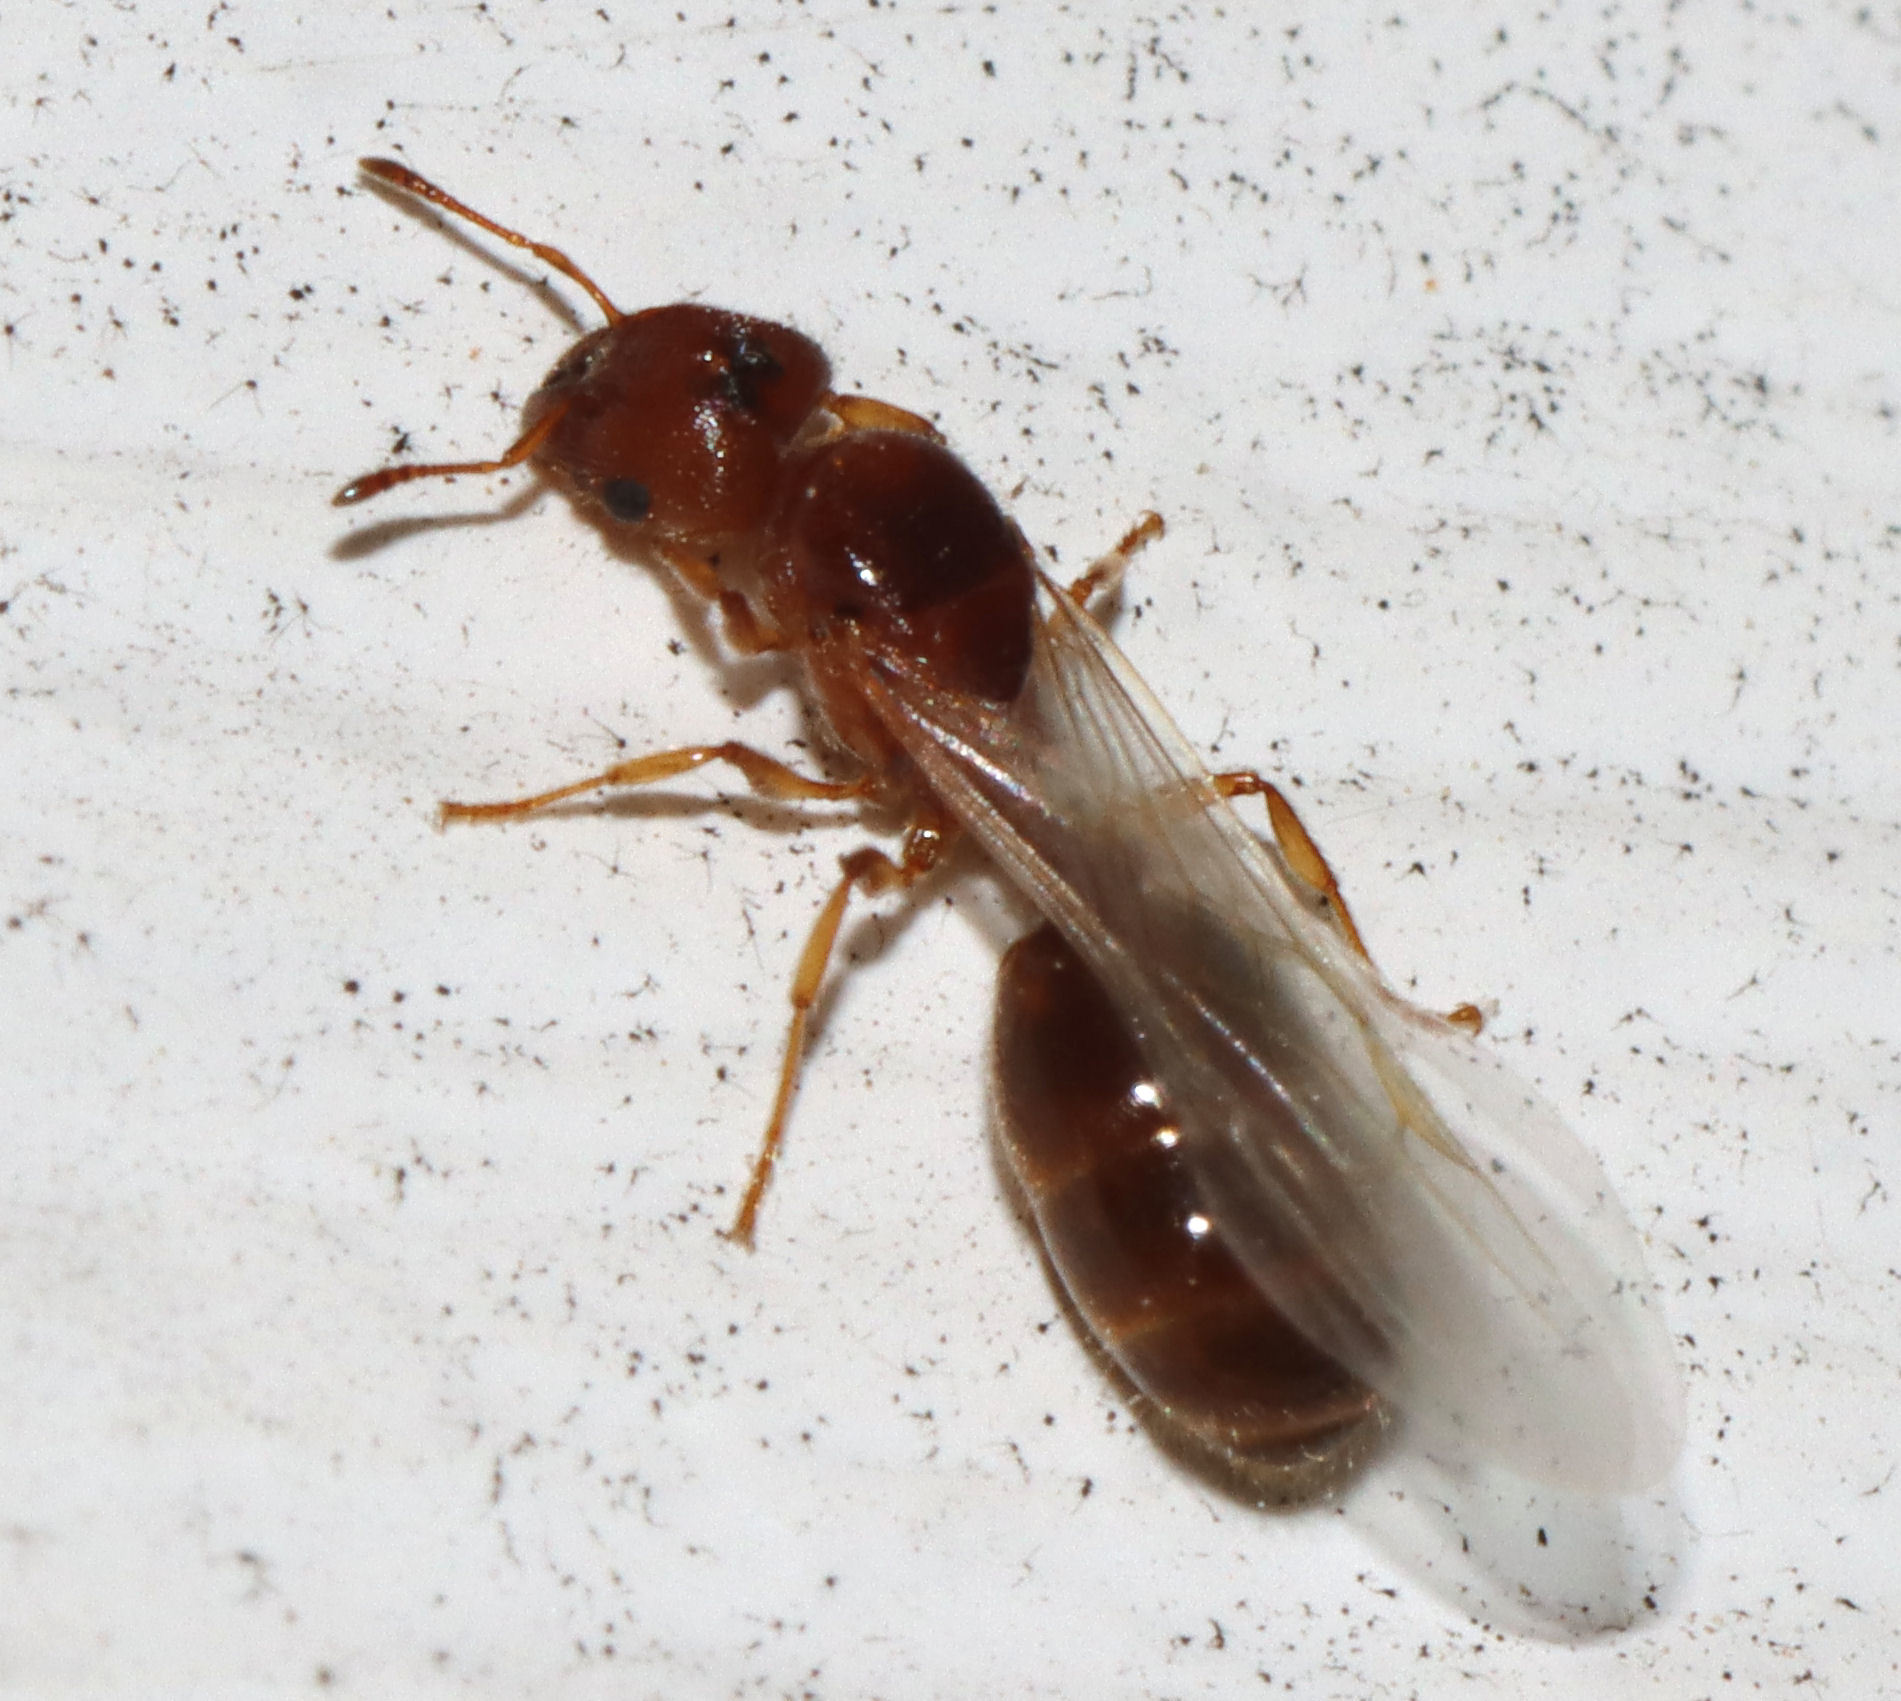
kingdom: Animalia
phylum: Arthropoda
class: Insecta
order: Hymenoptera
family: Formicidae
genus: Pheidole
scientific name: Pheidole bicarinata
